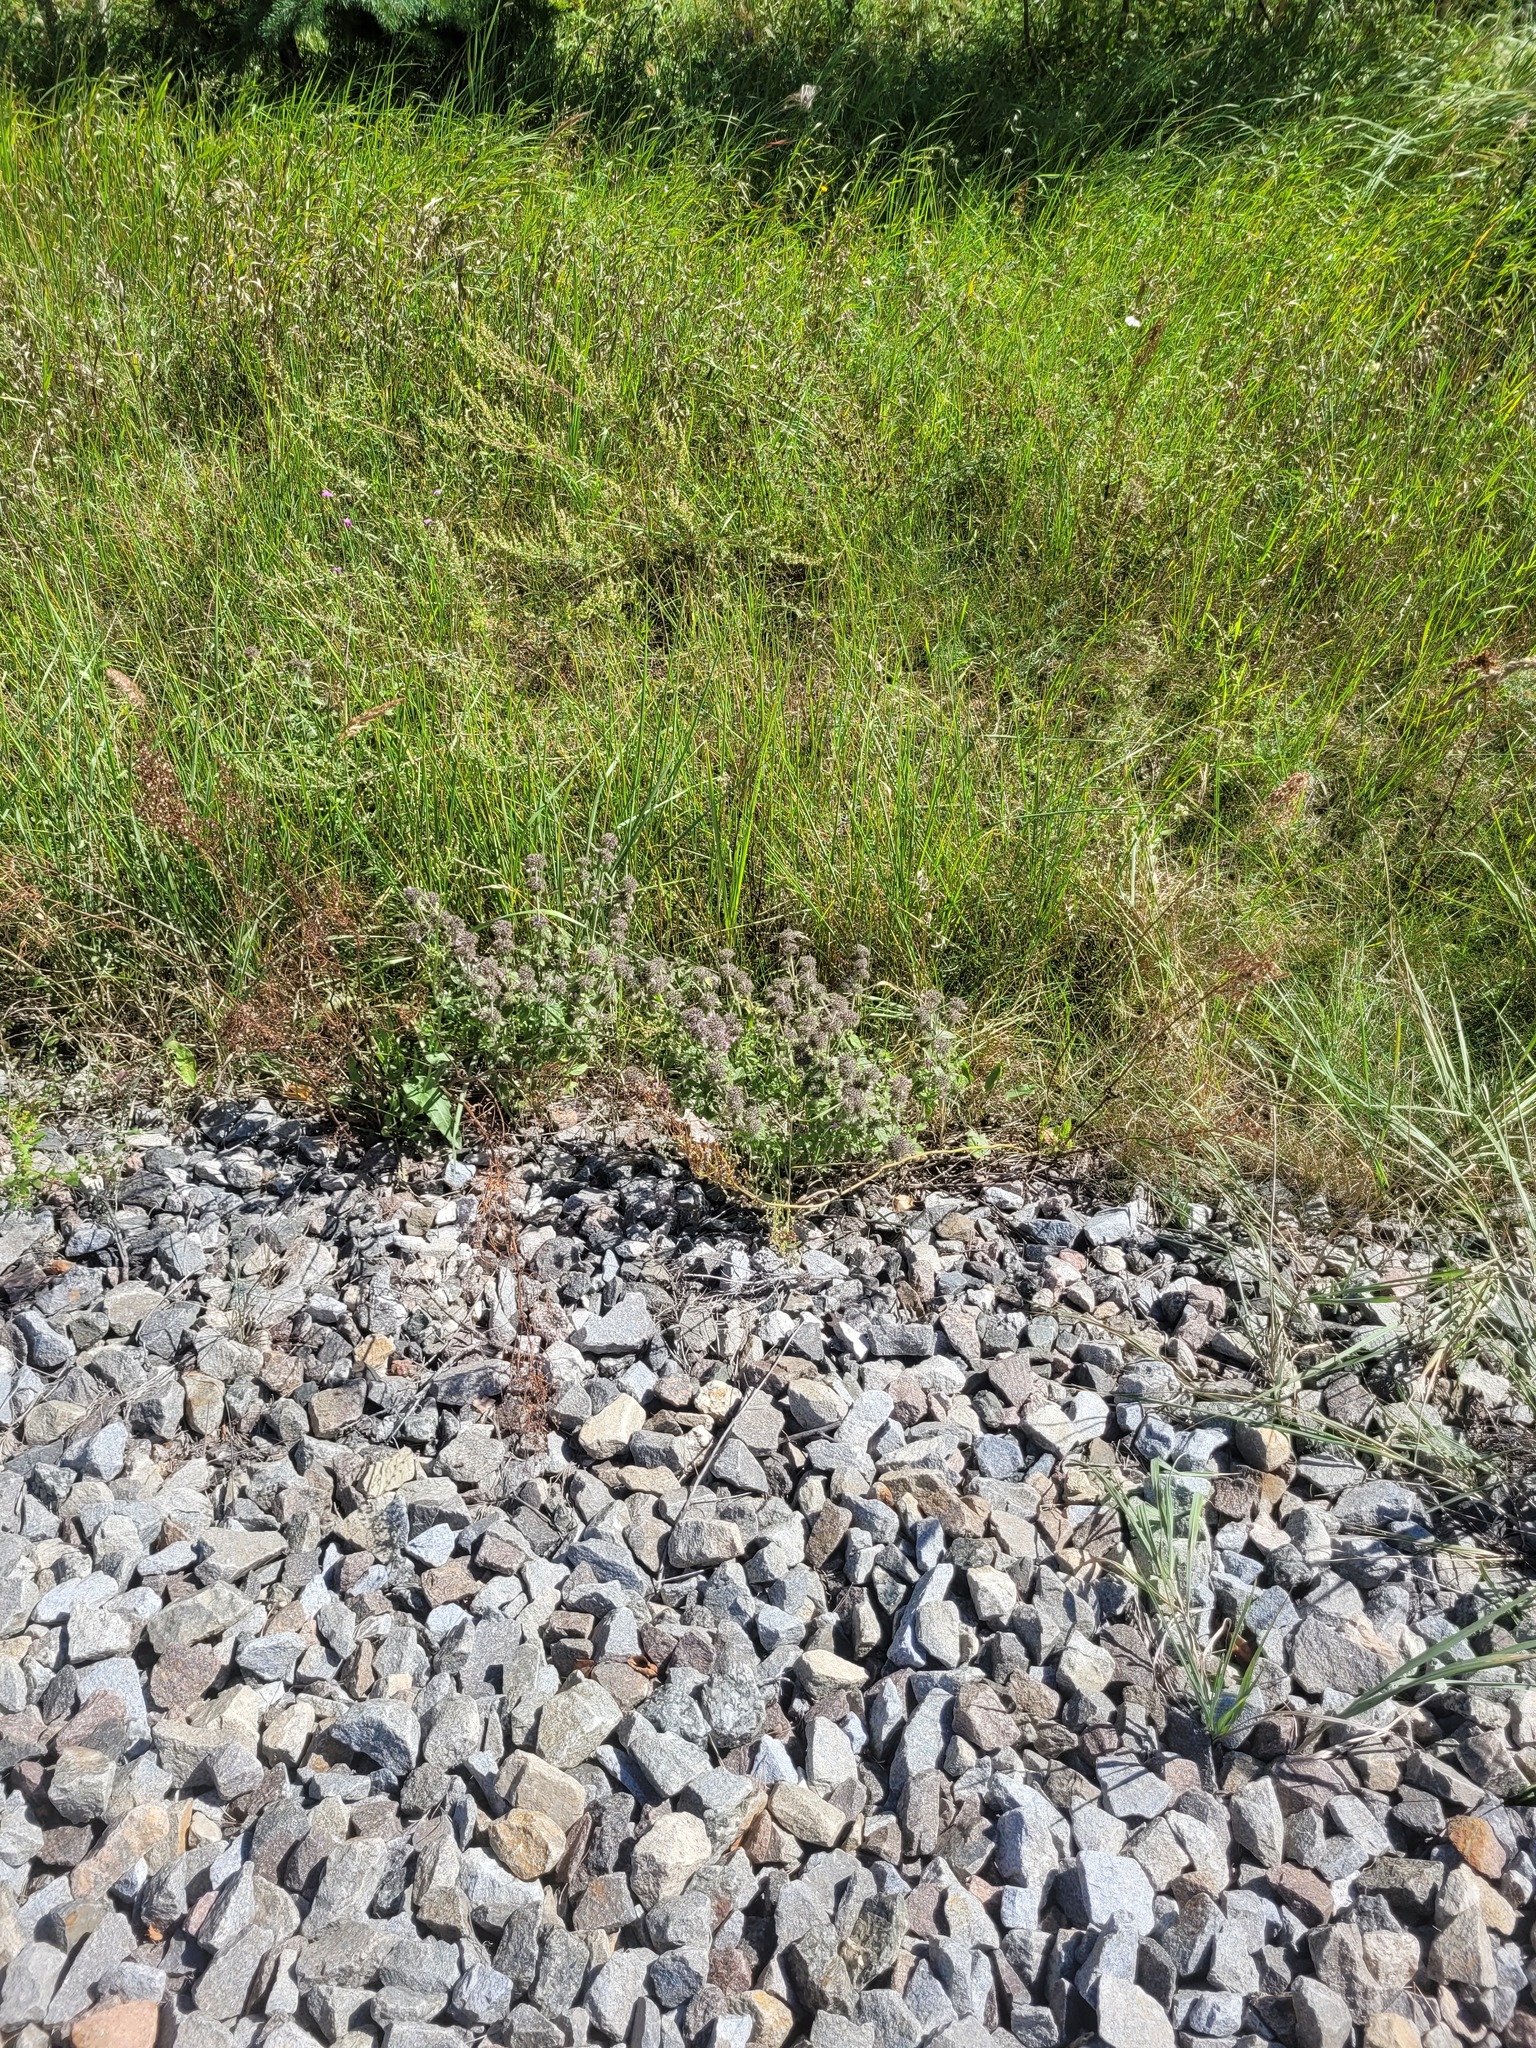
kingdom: Plantae
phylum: Tracheophyta
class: Magnoliopsida
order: Lamiales
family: Lamiaceae
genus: Clinopodium
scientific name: Clinopodium vulgare
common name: Wild basil
